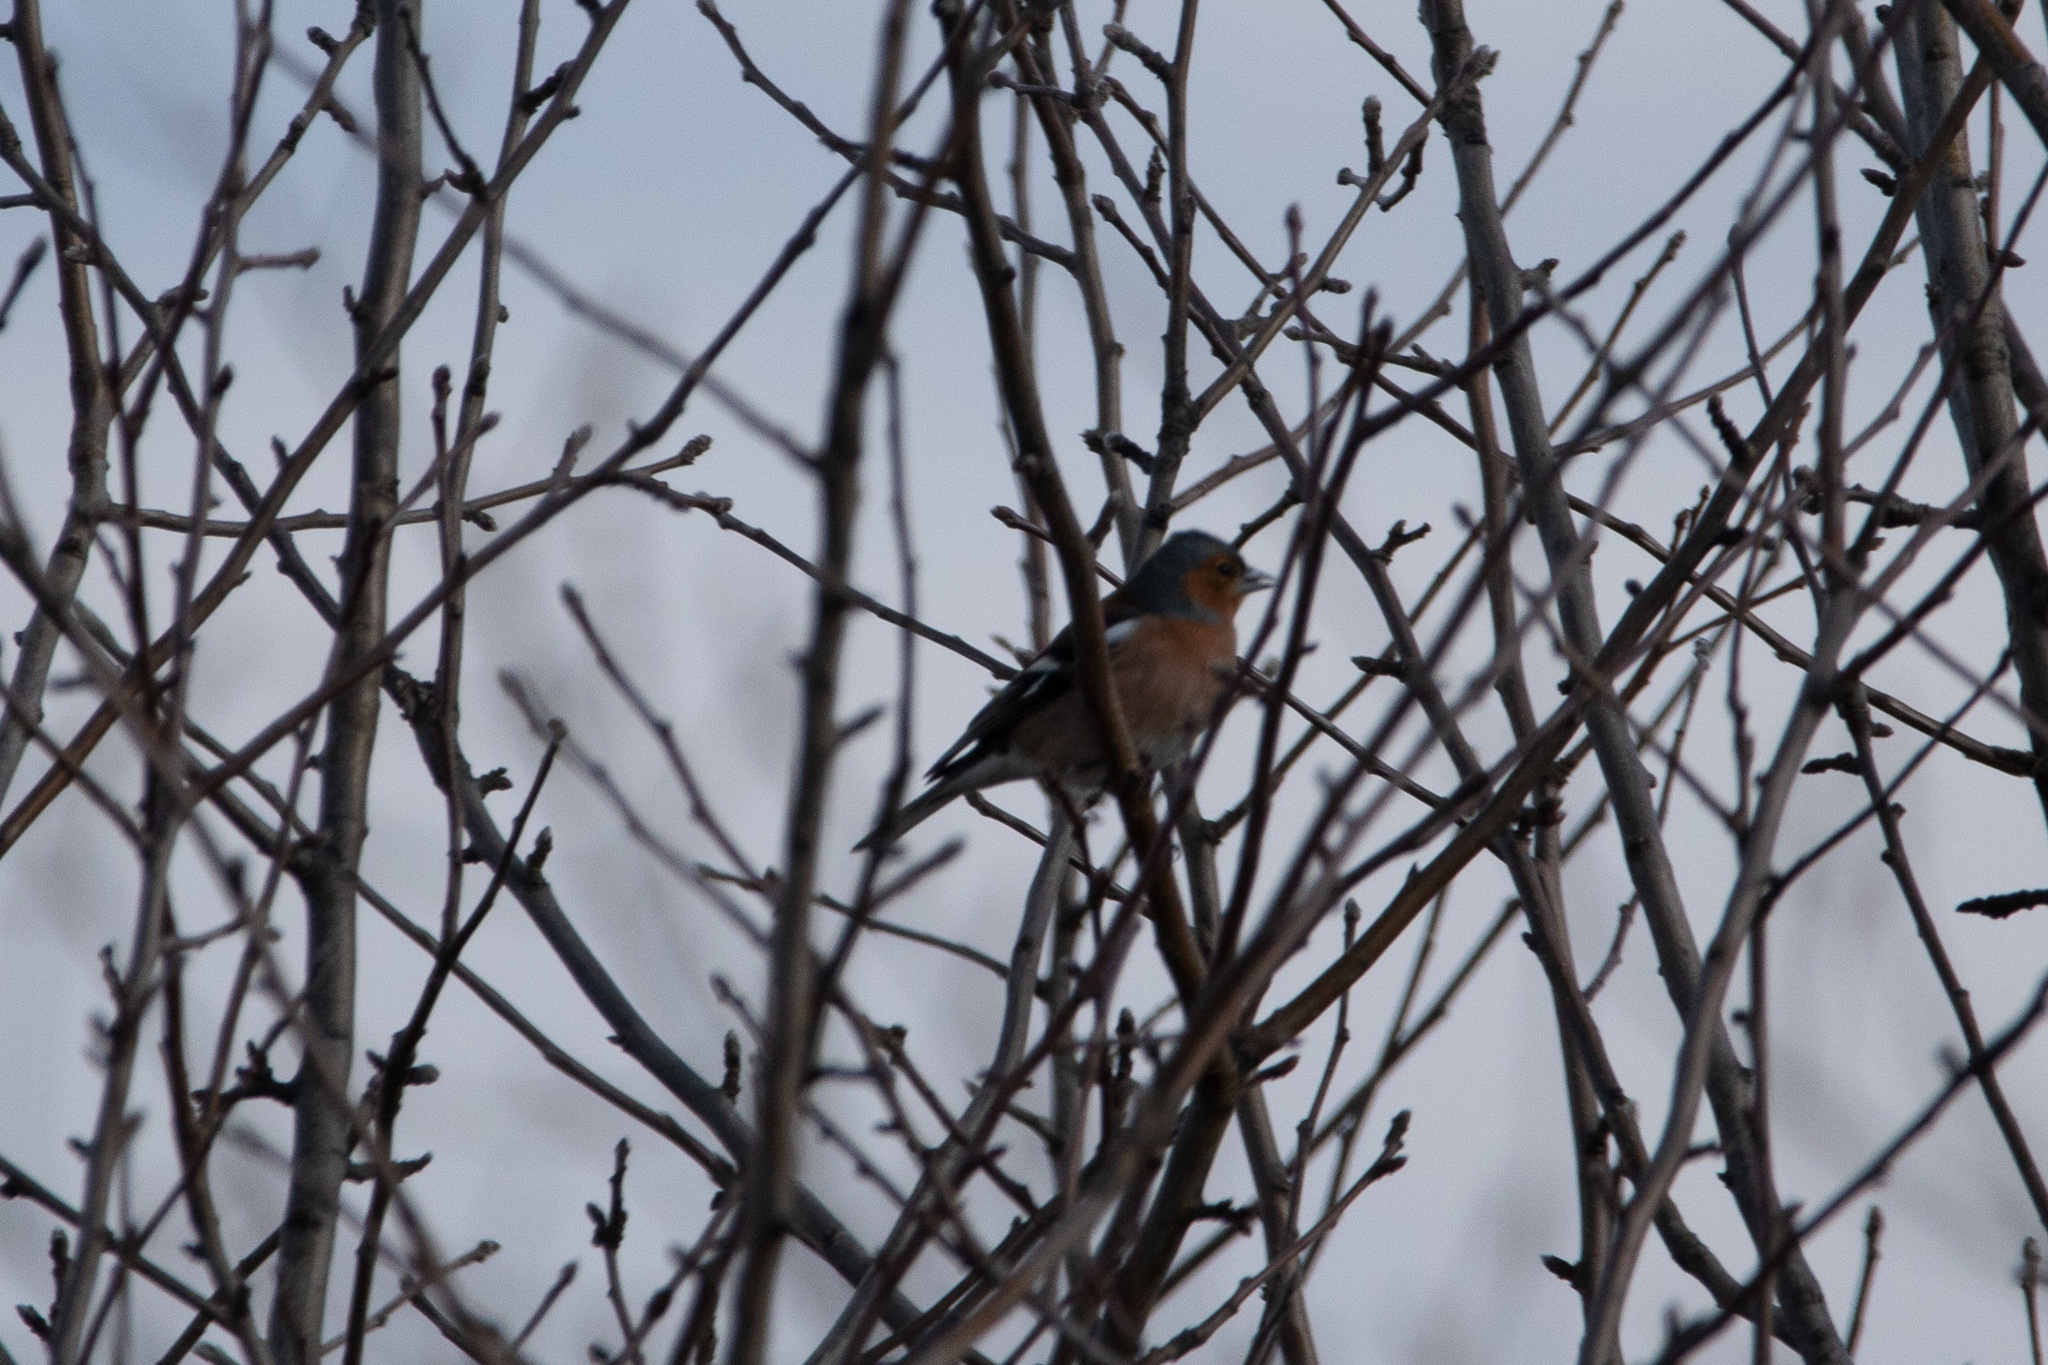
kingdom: Animalia
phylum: Chordata
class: Aves
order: Passeriformes
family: Fringillidae
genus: Fringilla
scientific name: Fringilla coelebs
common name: Common chaffinch
